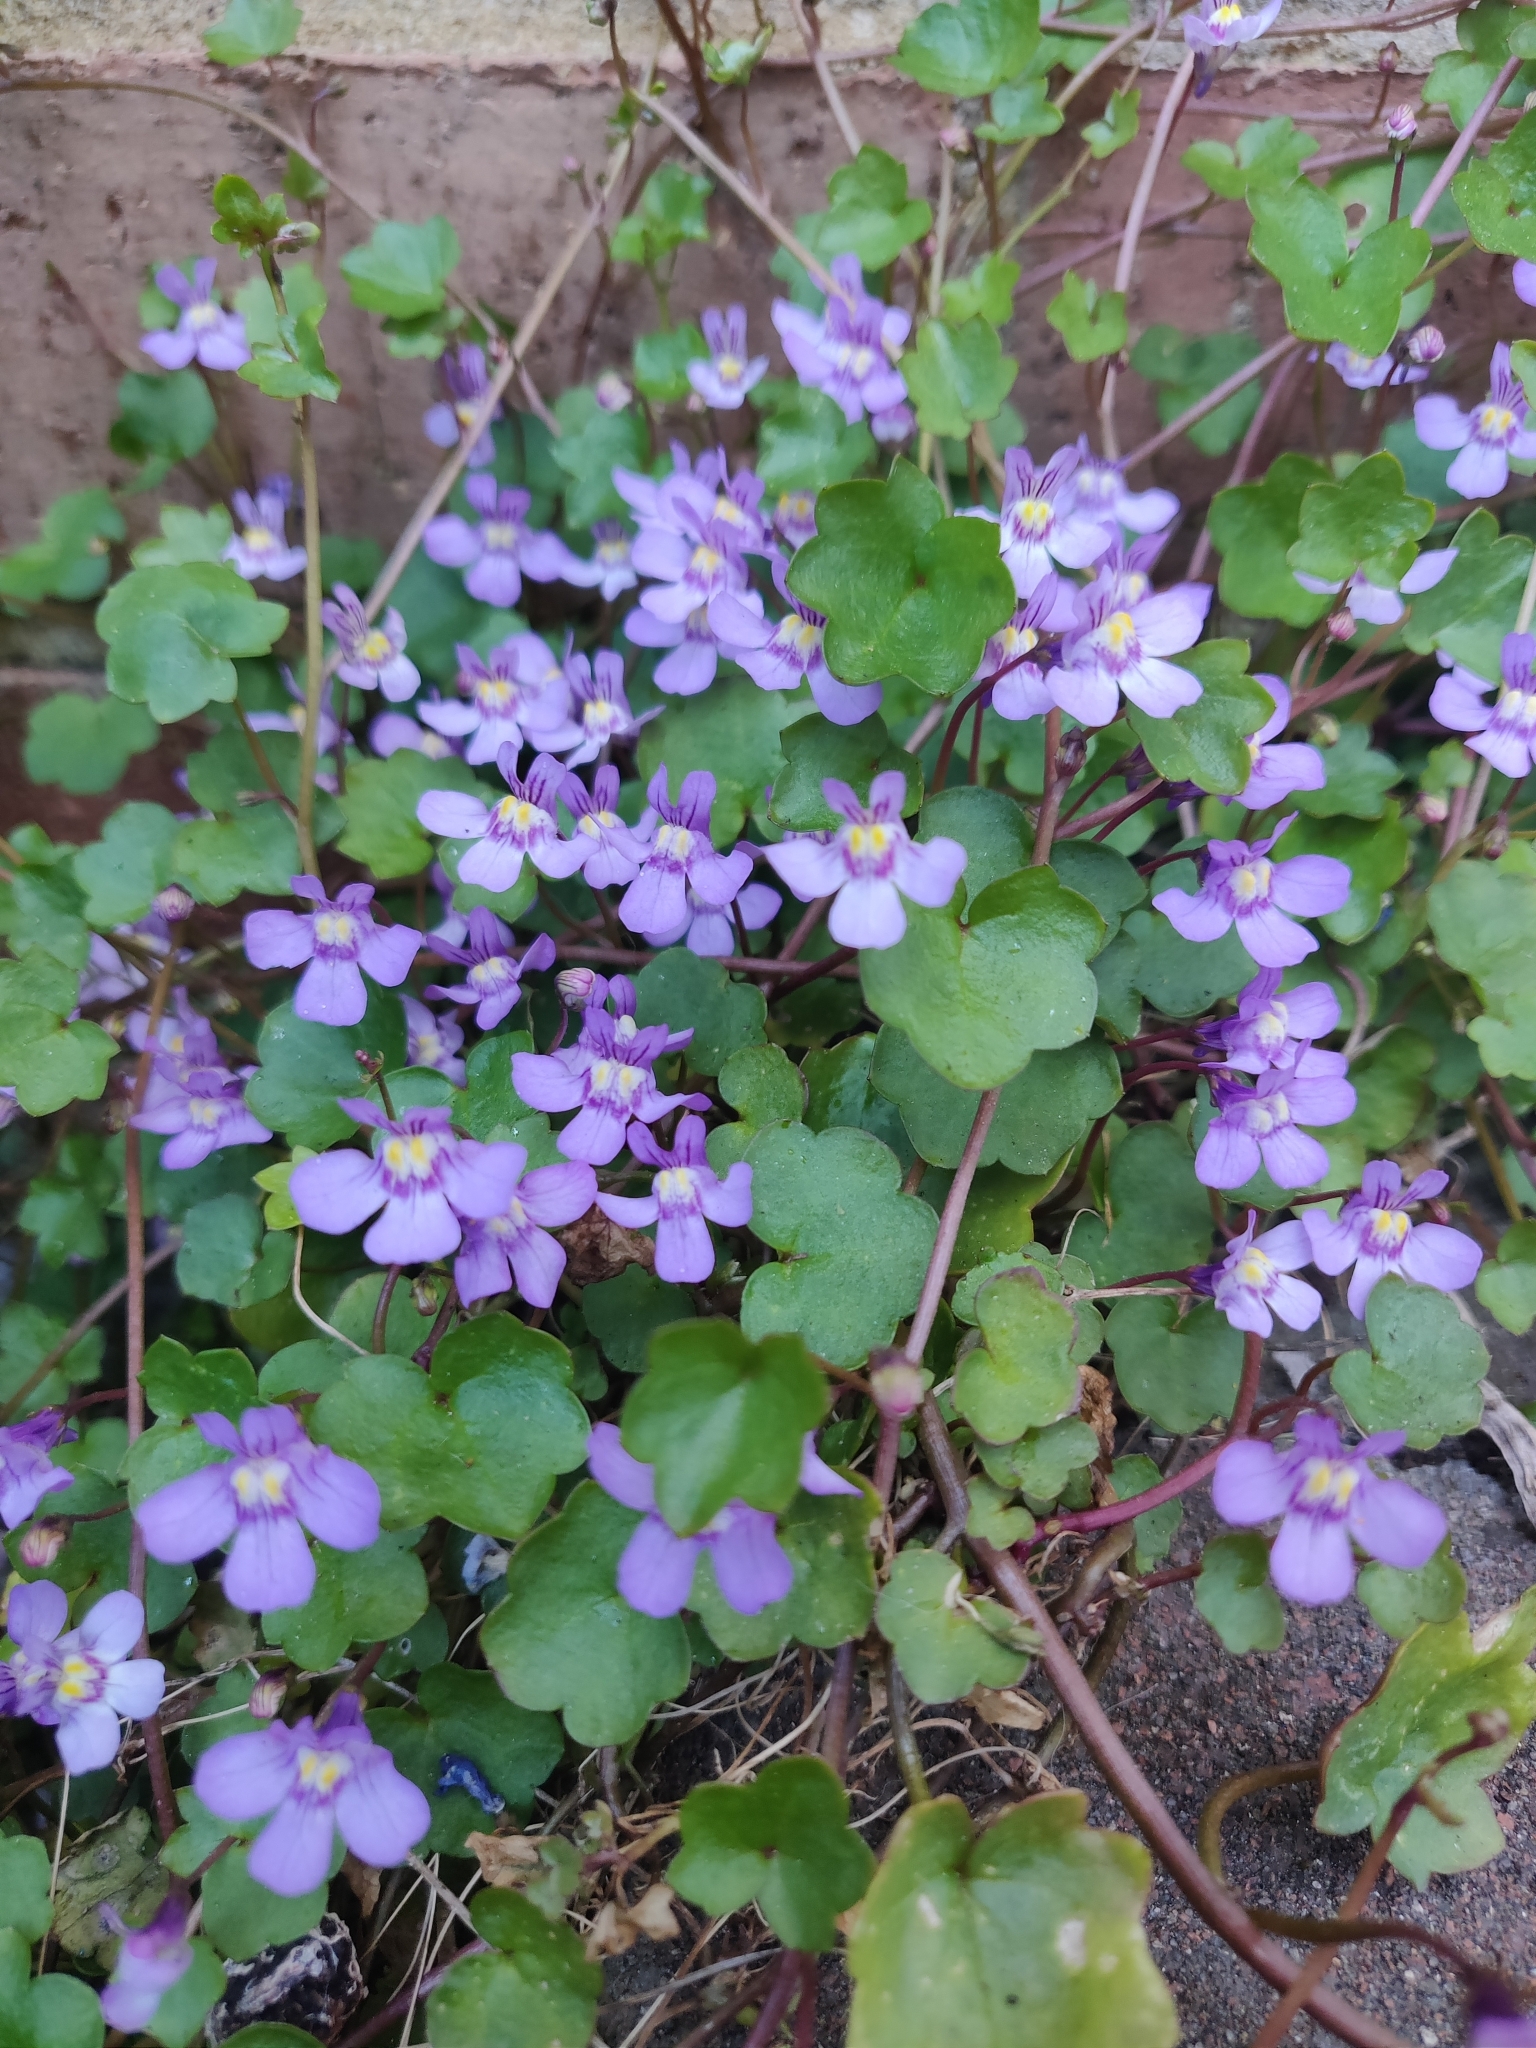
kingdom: Plantae
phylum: Tracheophyta
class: Magnoliopsida
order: Lamiales
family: Plantaginaceae
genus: Cymbalaria
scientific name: Cymbalaria muralis
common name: Ivy-leaved toadflax
